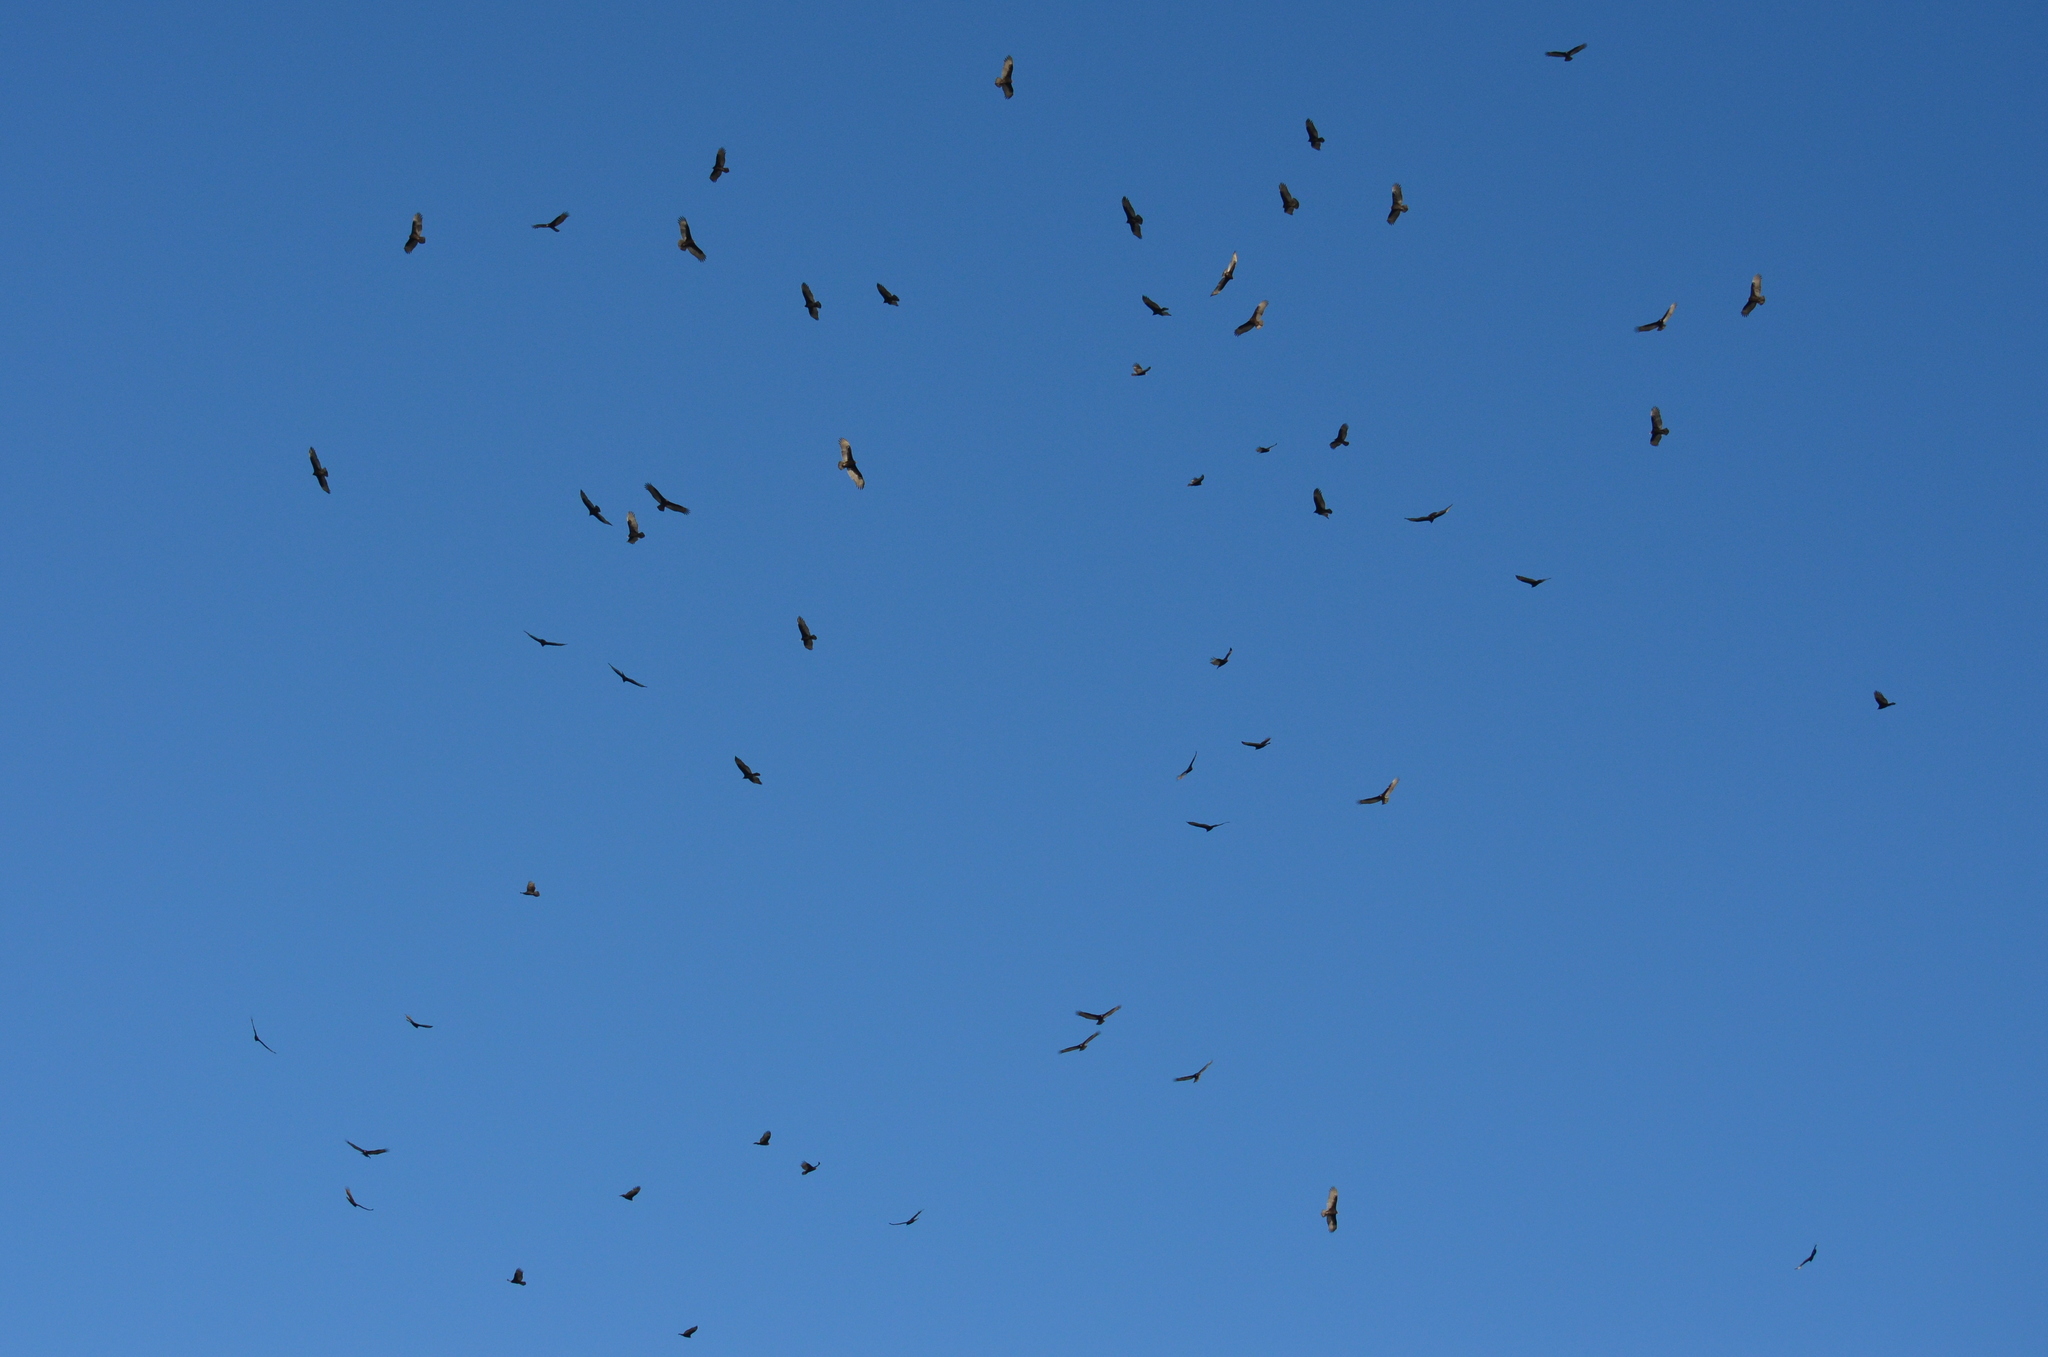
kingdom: Animalia
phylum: Chordata
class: Aves
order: Accipitriformes
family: Cathartidae
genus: Cathartes
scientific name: Cathartes aura
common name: Turkey vulture
